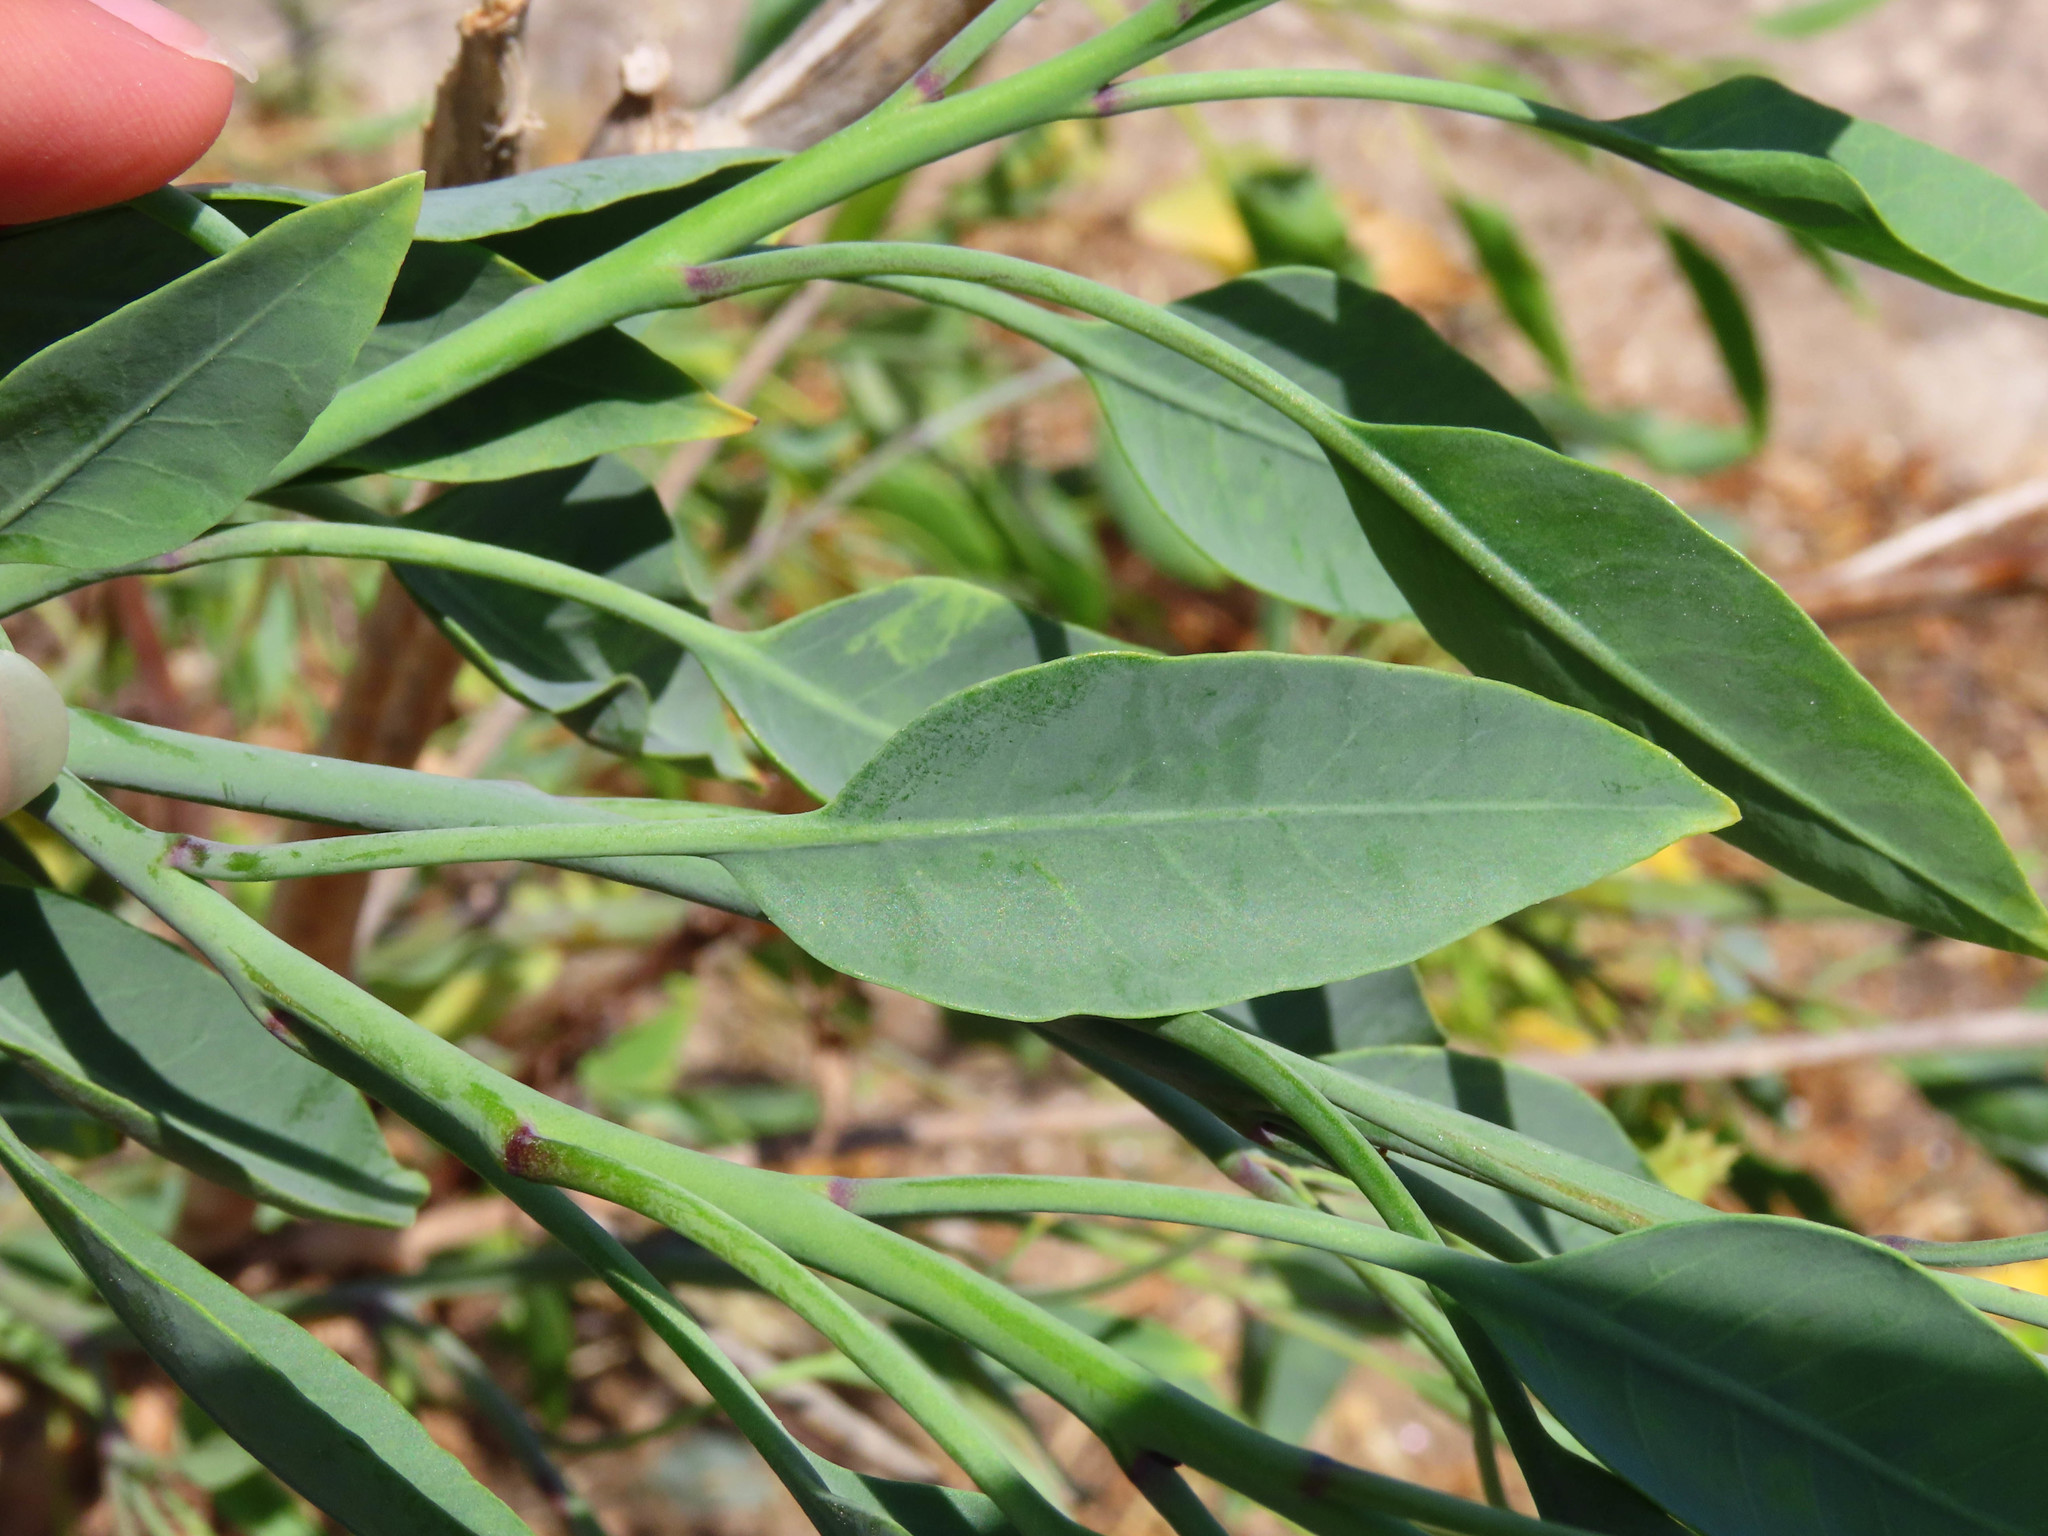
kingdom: Plantae
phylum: Tracheophyta
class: Magnoliopsida
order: Solanales
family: Solanaceae
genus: Nicotiana
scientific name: Nicotiana glauca
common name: Tree tobacco
